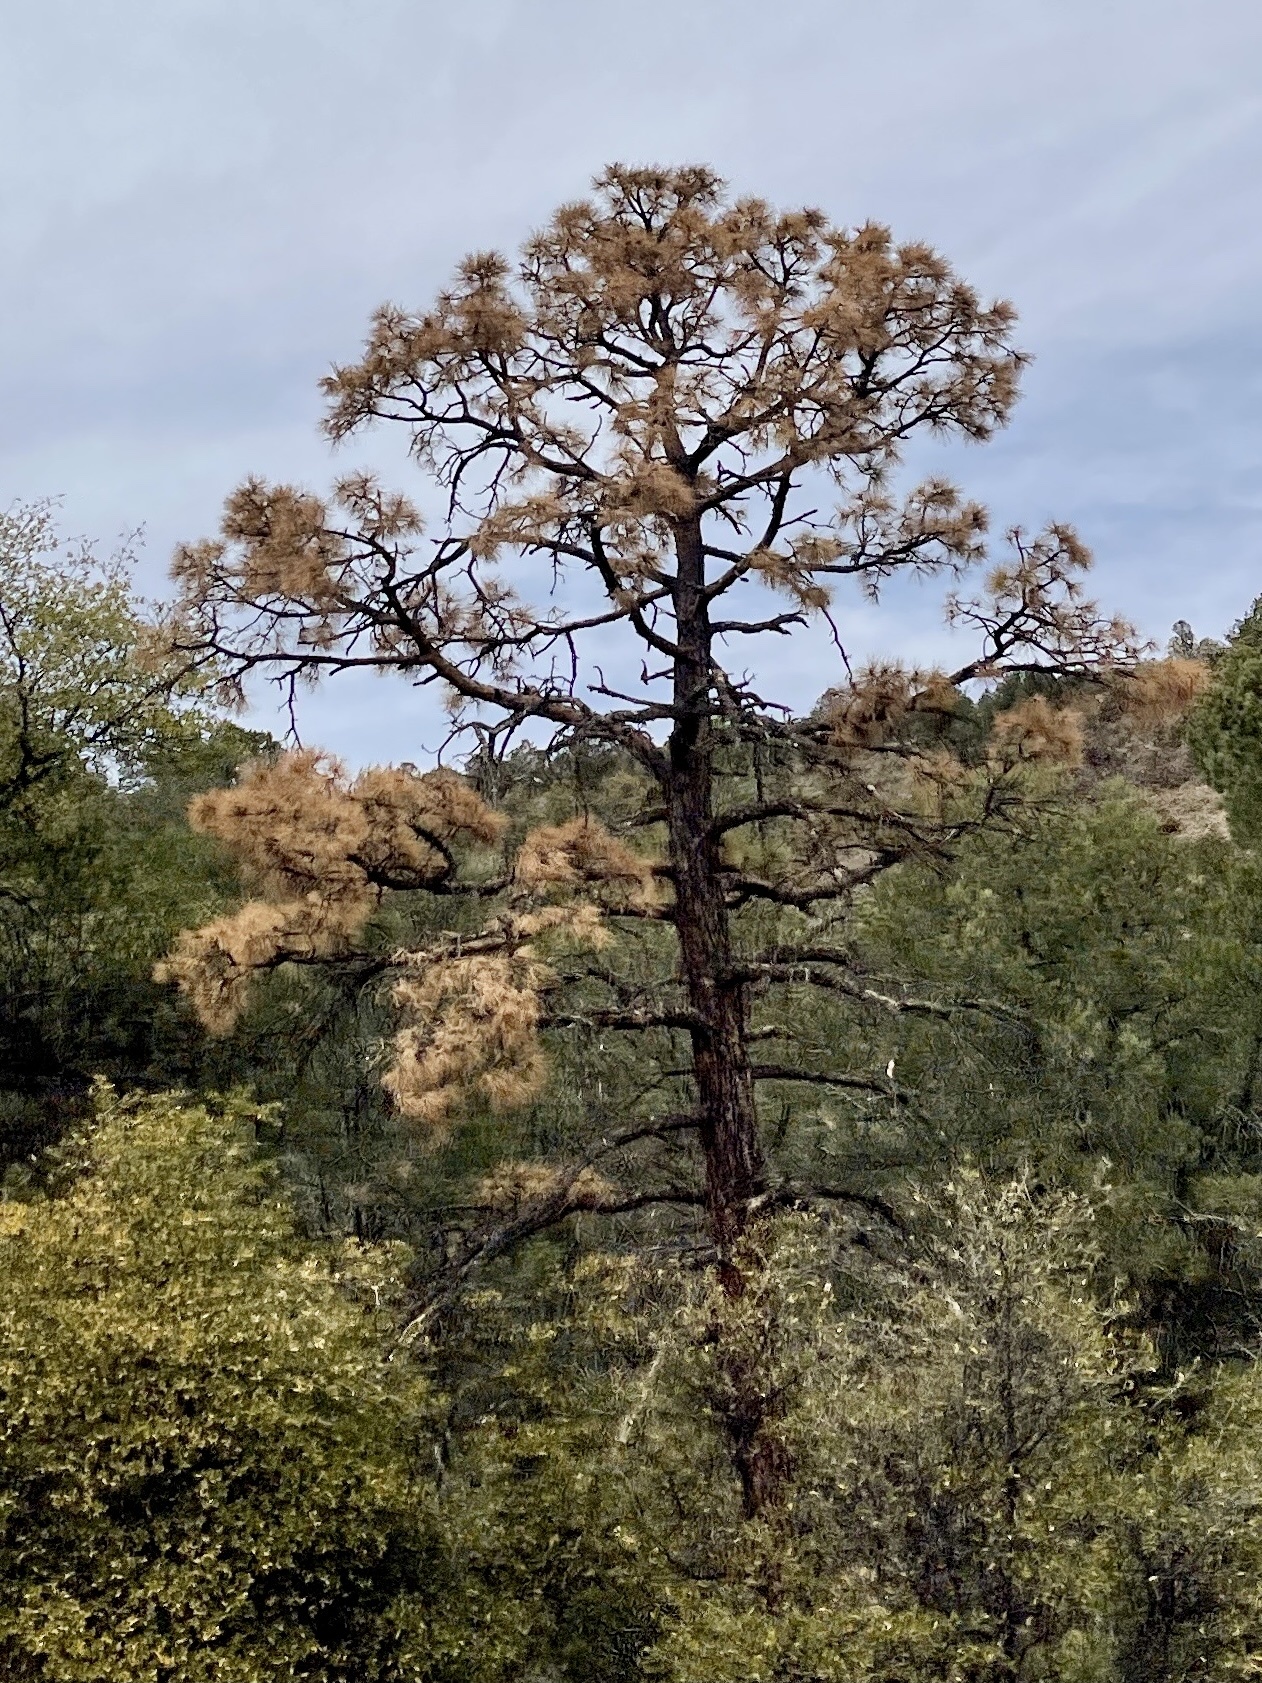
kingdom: Plantae
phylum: Tracheophyta
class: Pinopsida
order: Pinales
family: Pinaceae
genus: Pinus
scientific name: Pinus ponderosa
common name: Western yellow-pine
